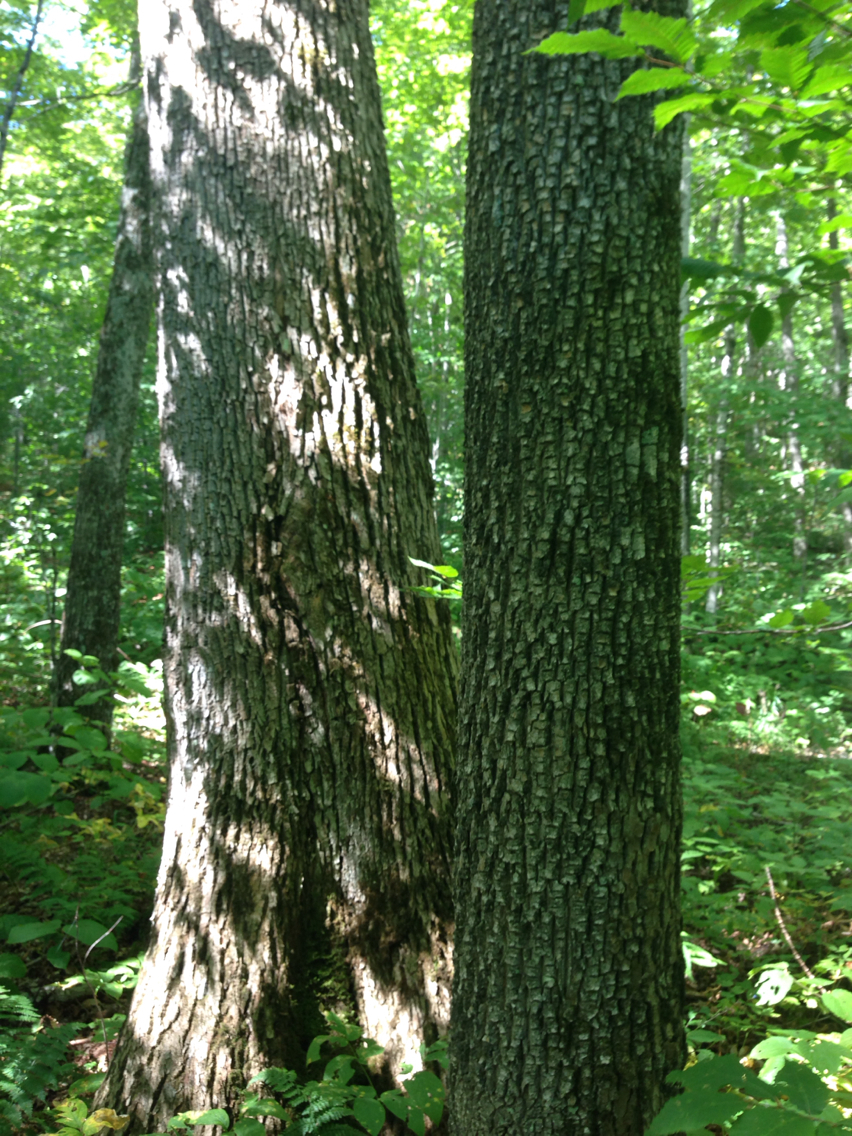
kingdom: Plantae
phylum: Tracheophyta
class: Magnoliopsida
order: Lamiales
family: Oleaceae
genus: Fraxinus
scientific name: Fraxinus americana
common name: White ash
